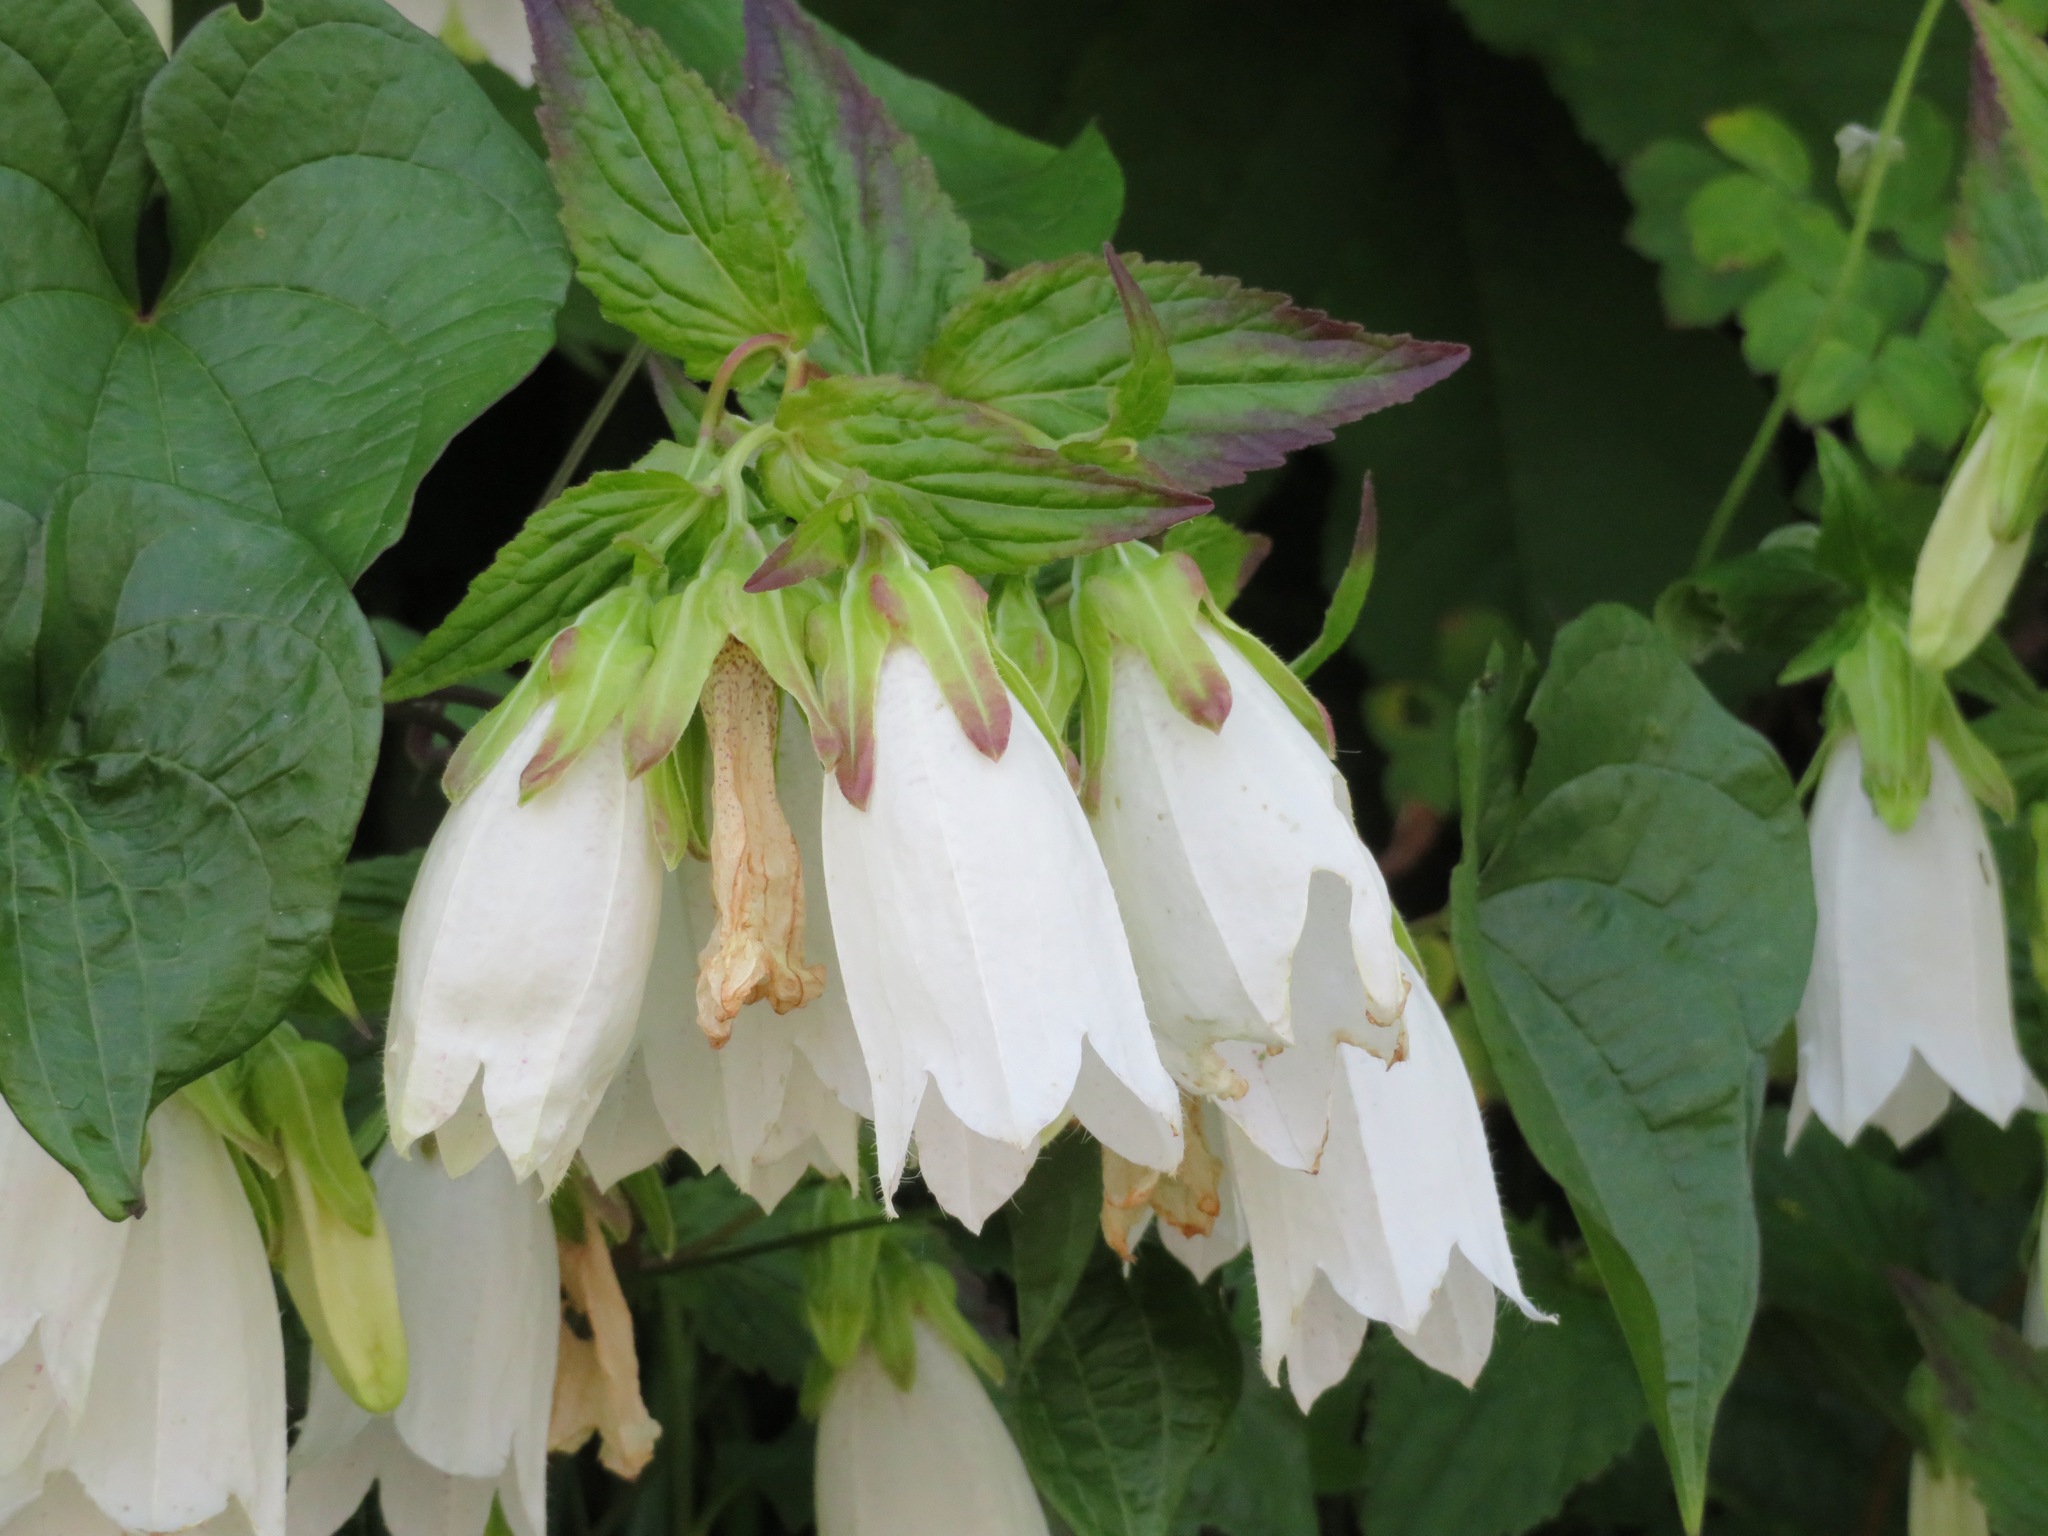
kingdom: Plantae
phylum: Tracheophyta
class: Magnoliopsida
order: Asterales
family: Campanulaceae
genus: Campanula
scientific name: Campanula punctata
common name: Spotted bellflower
